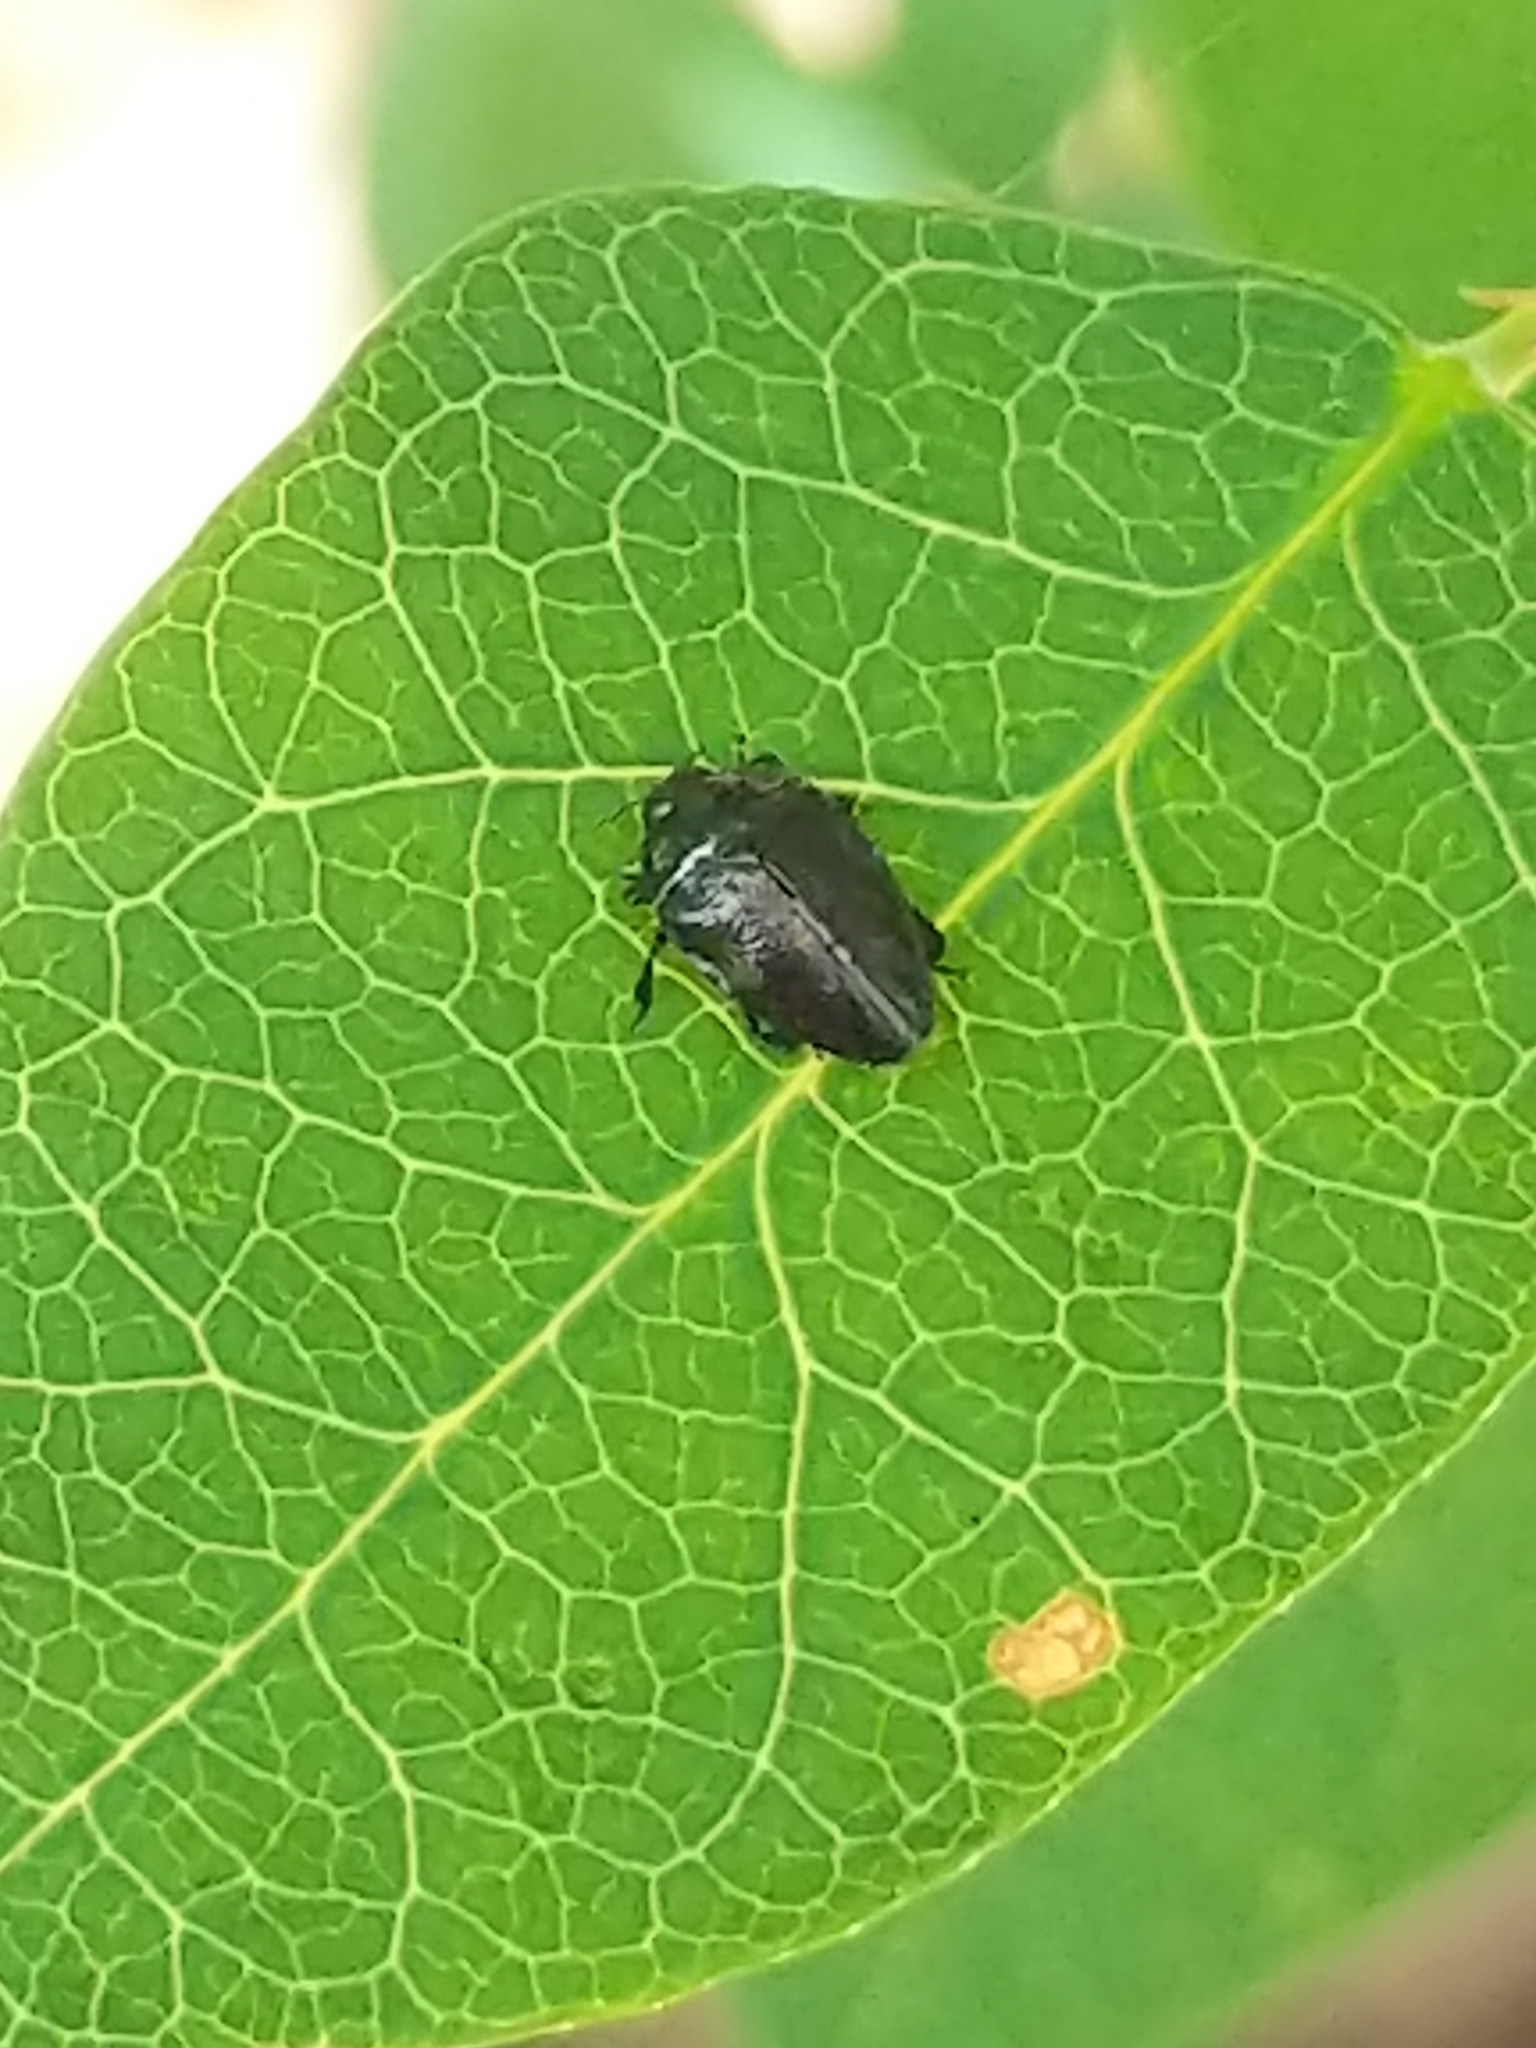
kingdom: Animalia
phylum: Arthropoda
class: Insecta
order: Coleoptera
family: Buprestidae
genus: Pachyschelus
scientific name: Pachyschelus laevigatus
